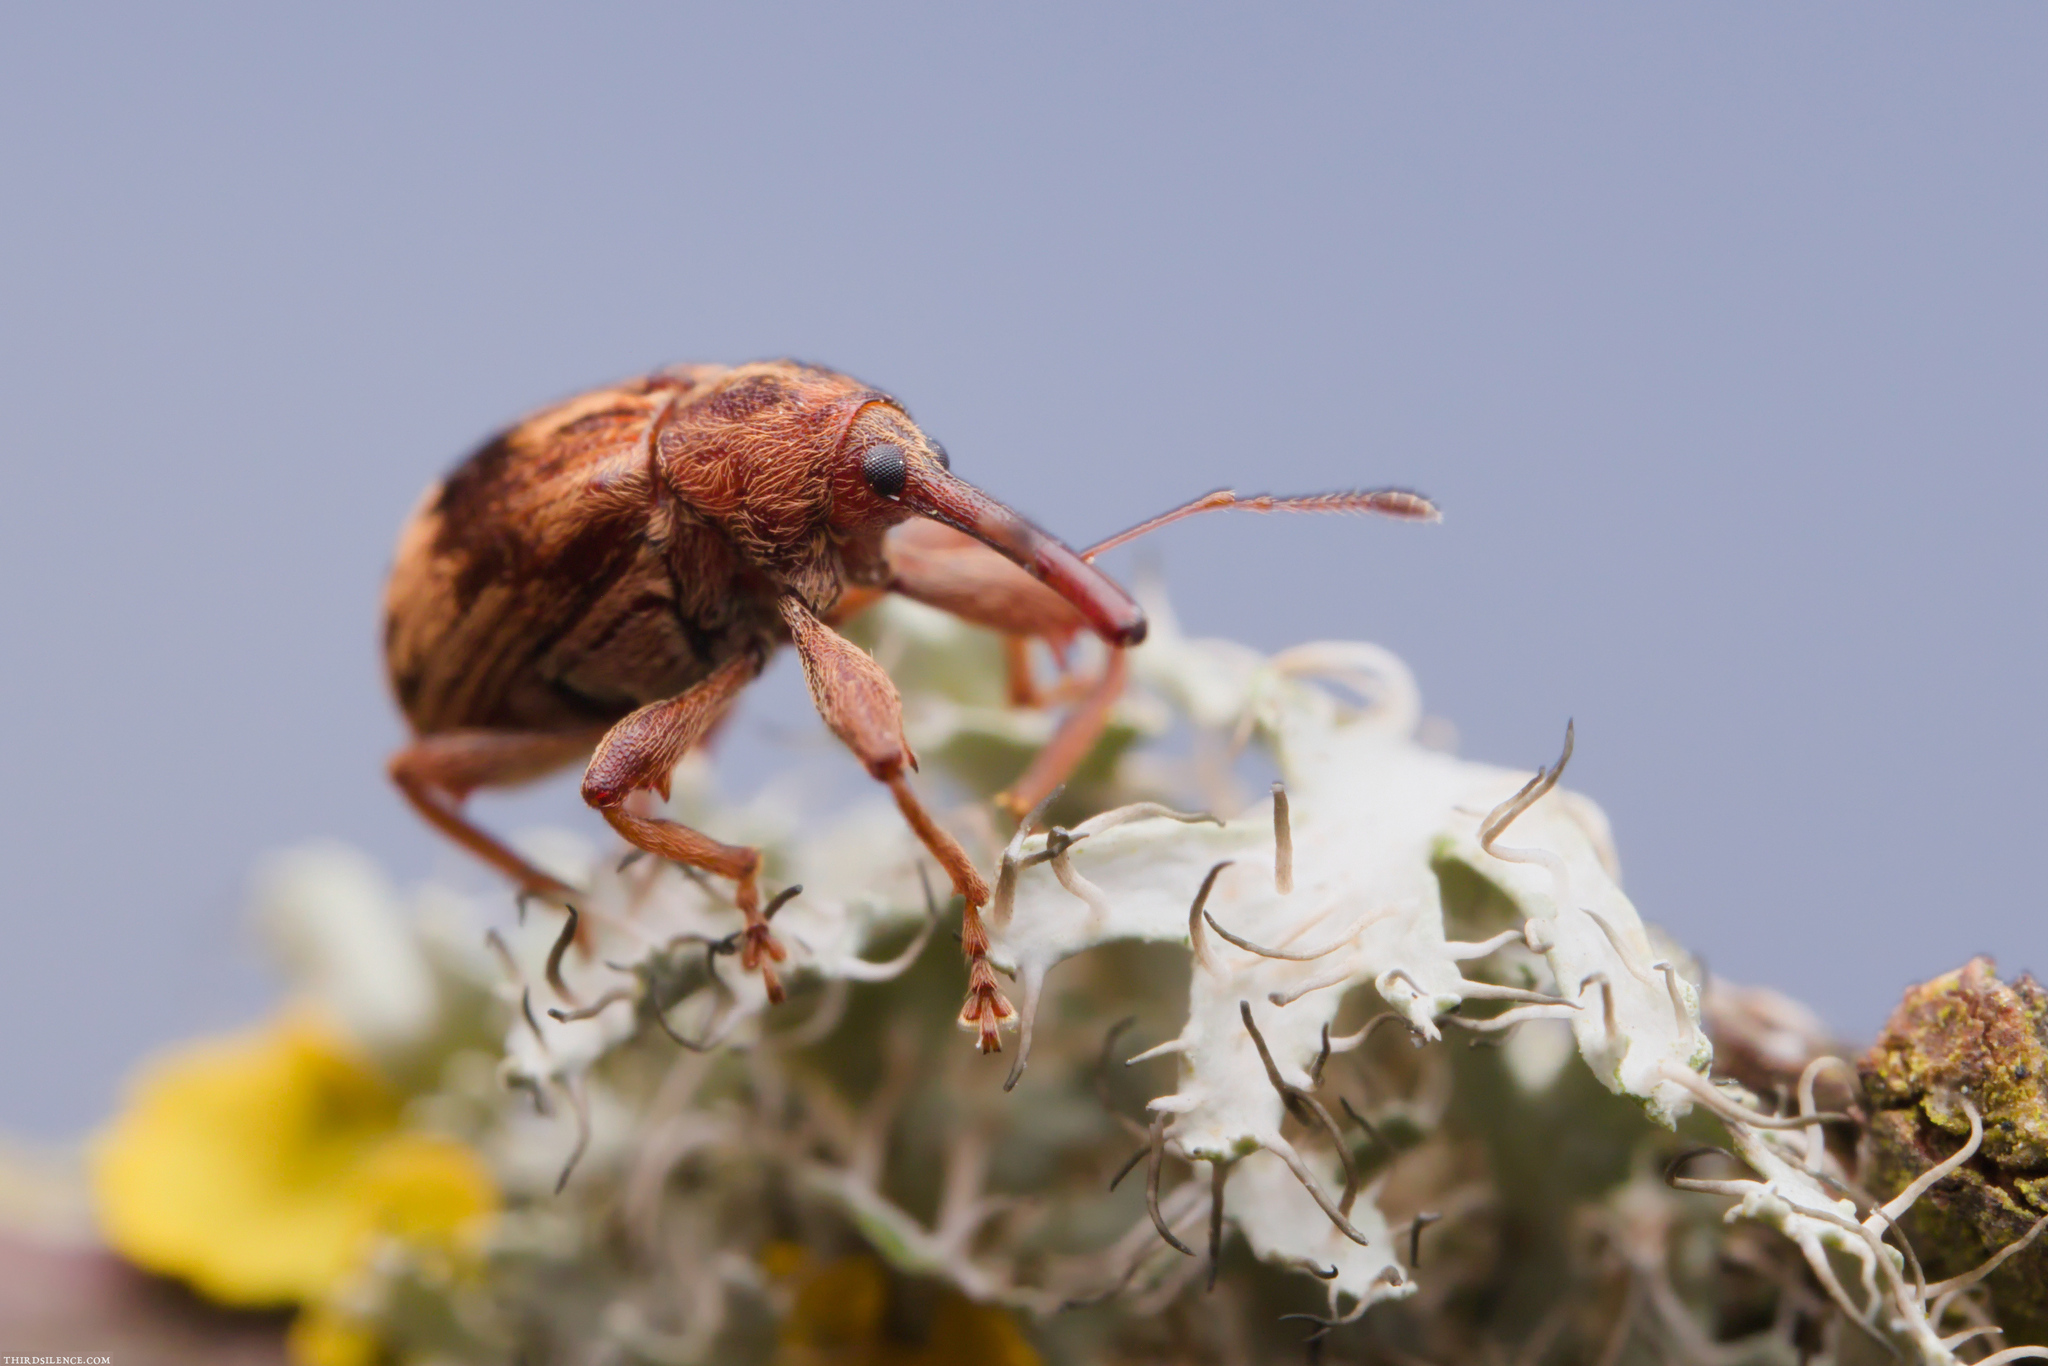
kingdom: Animalia
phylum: Arthropoda
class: Insecta
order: Coleoptera
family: Curculionidae
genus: Anthonomus
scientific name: Anthonomus rectirostris
